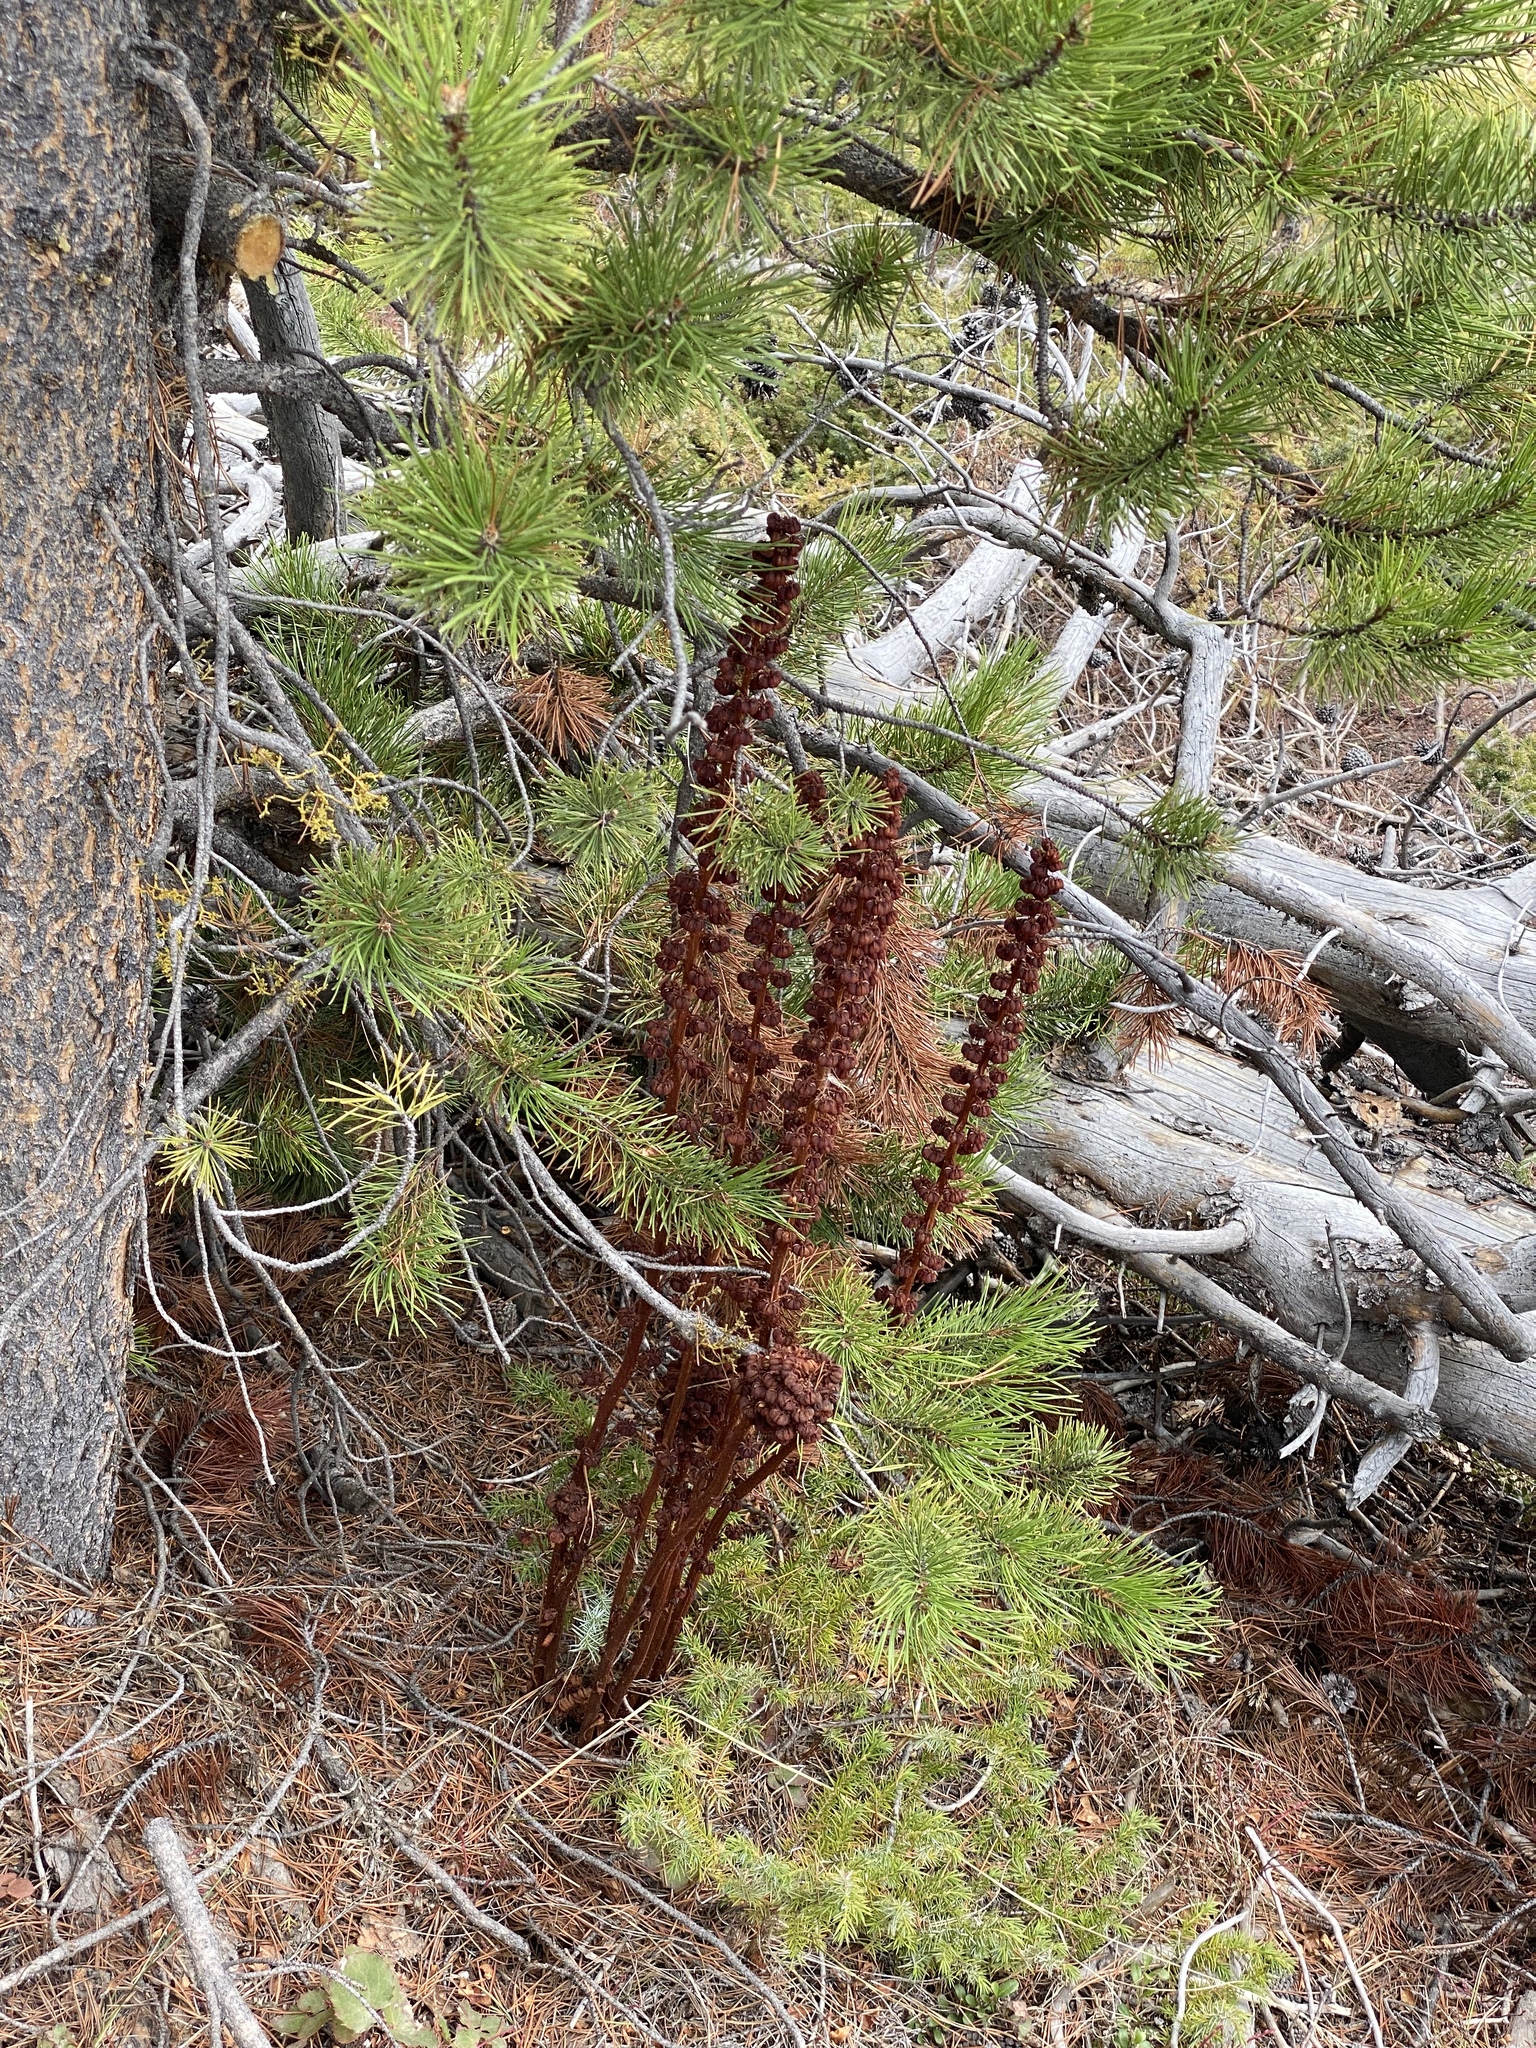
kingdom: Plantae
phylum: Tracheophyta
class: Magnoliopsida
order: Ericales
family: Ericaceae
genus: Pterospora
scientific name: Pterospora andromedea
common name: Giant bird's-nest
